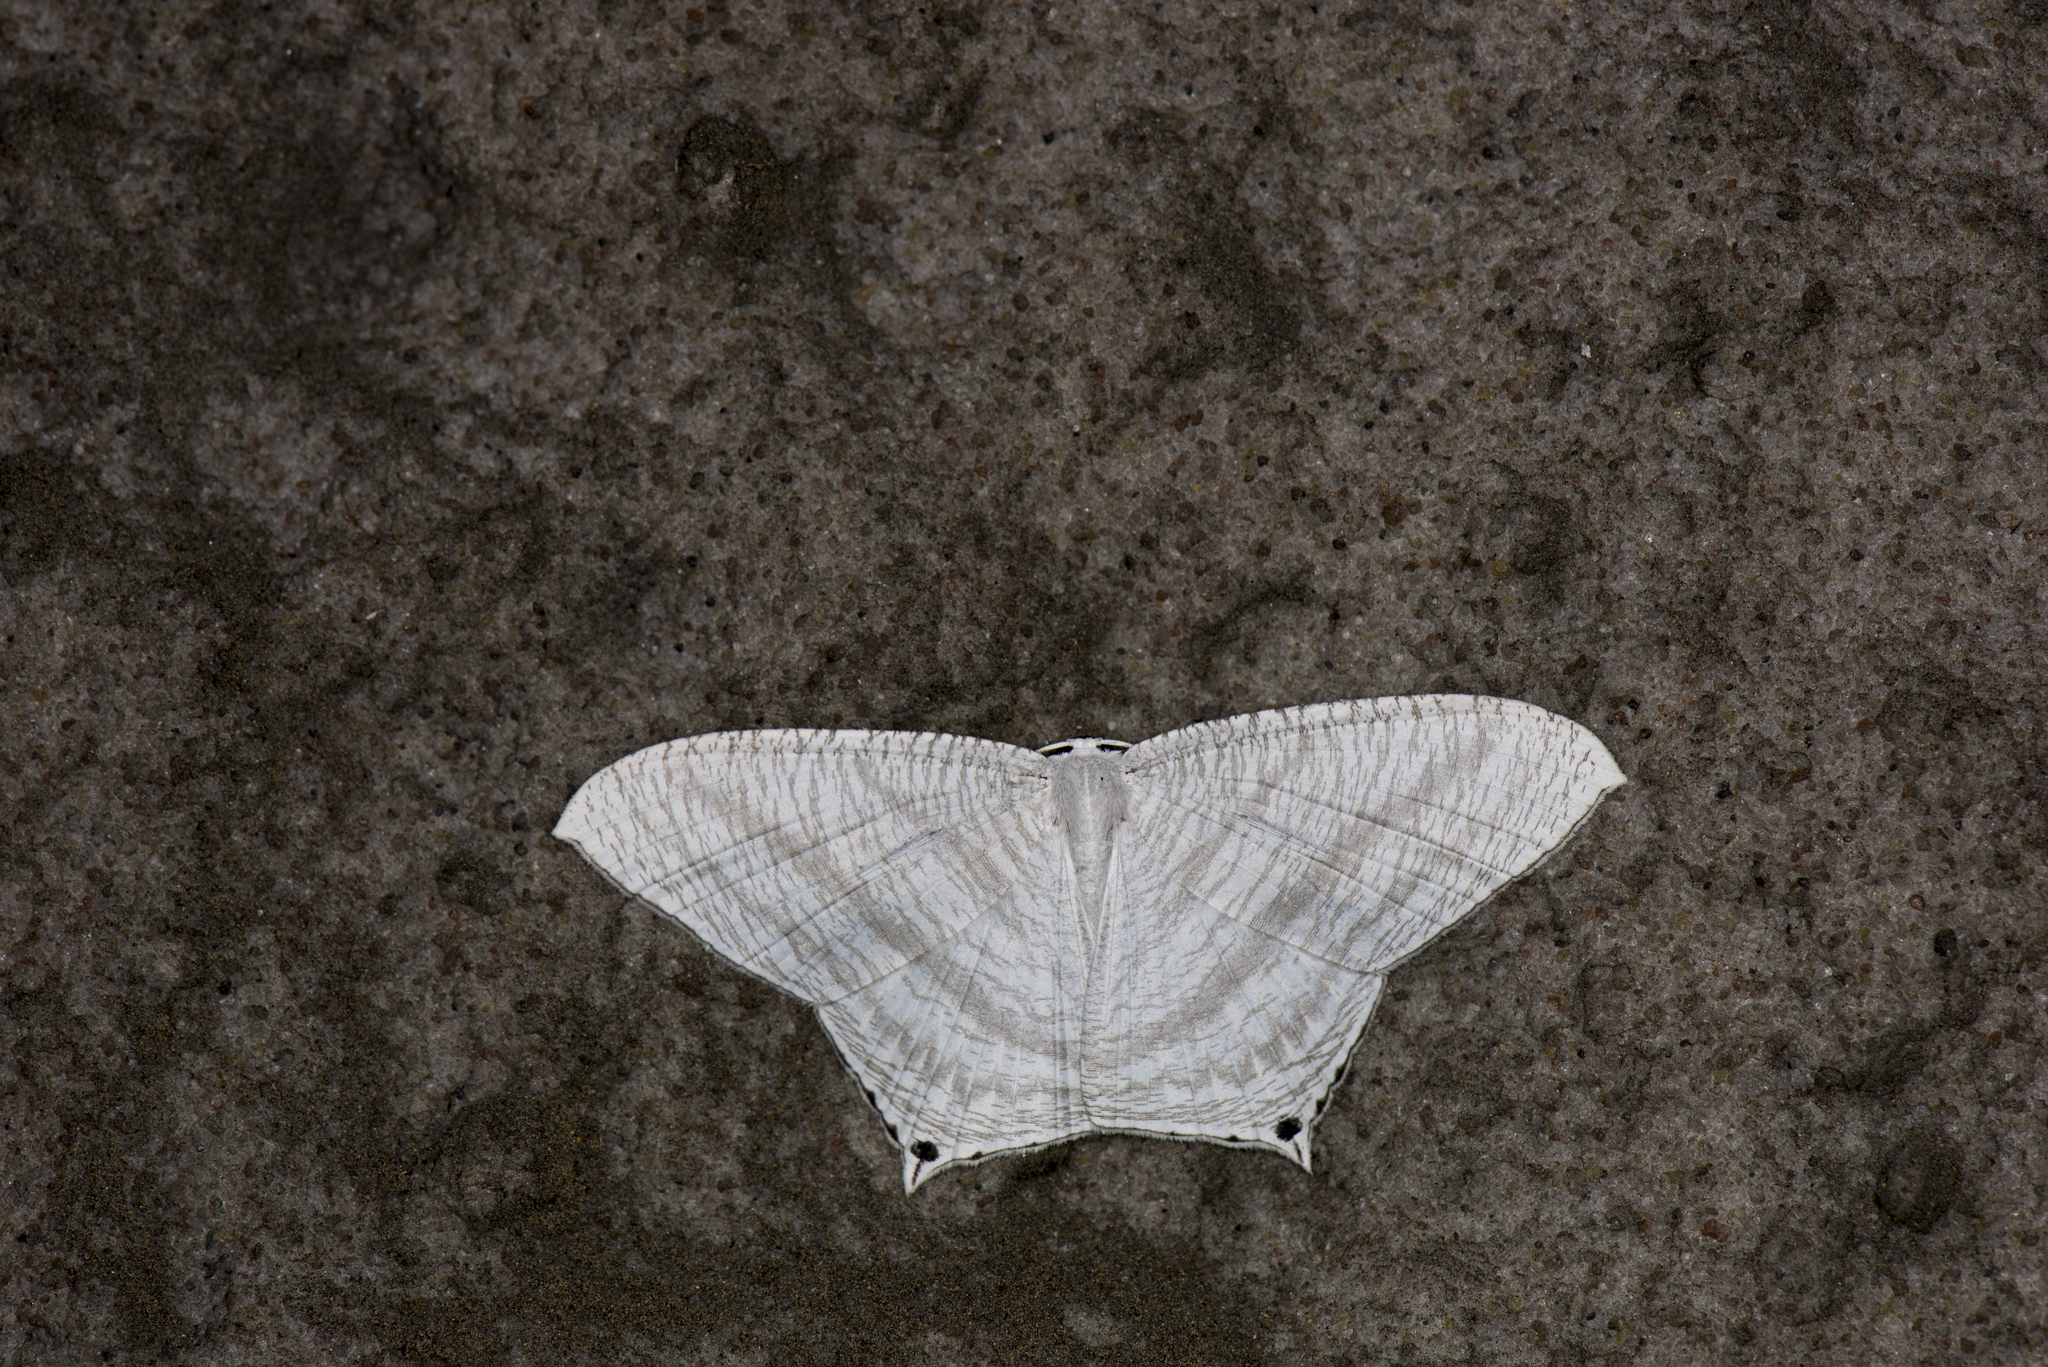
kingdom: Animalia
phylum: Arthropoda
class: Insecta
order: Lepidoptera
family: Uraniidae
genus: Micronia
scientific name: Micronia aculeata
